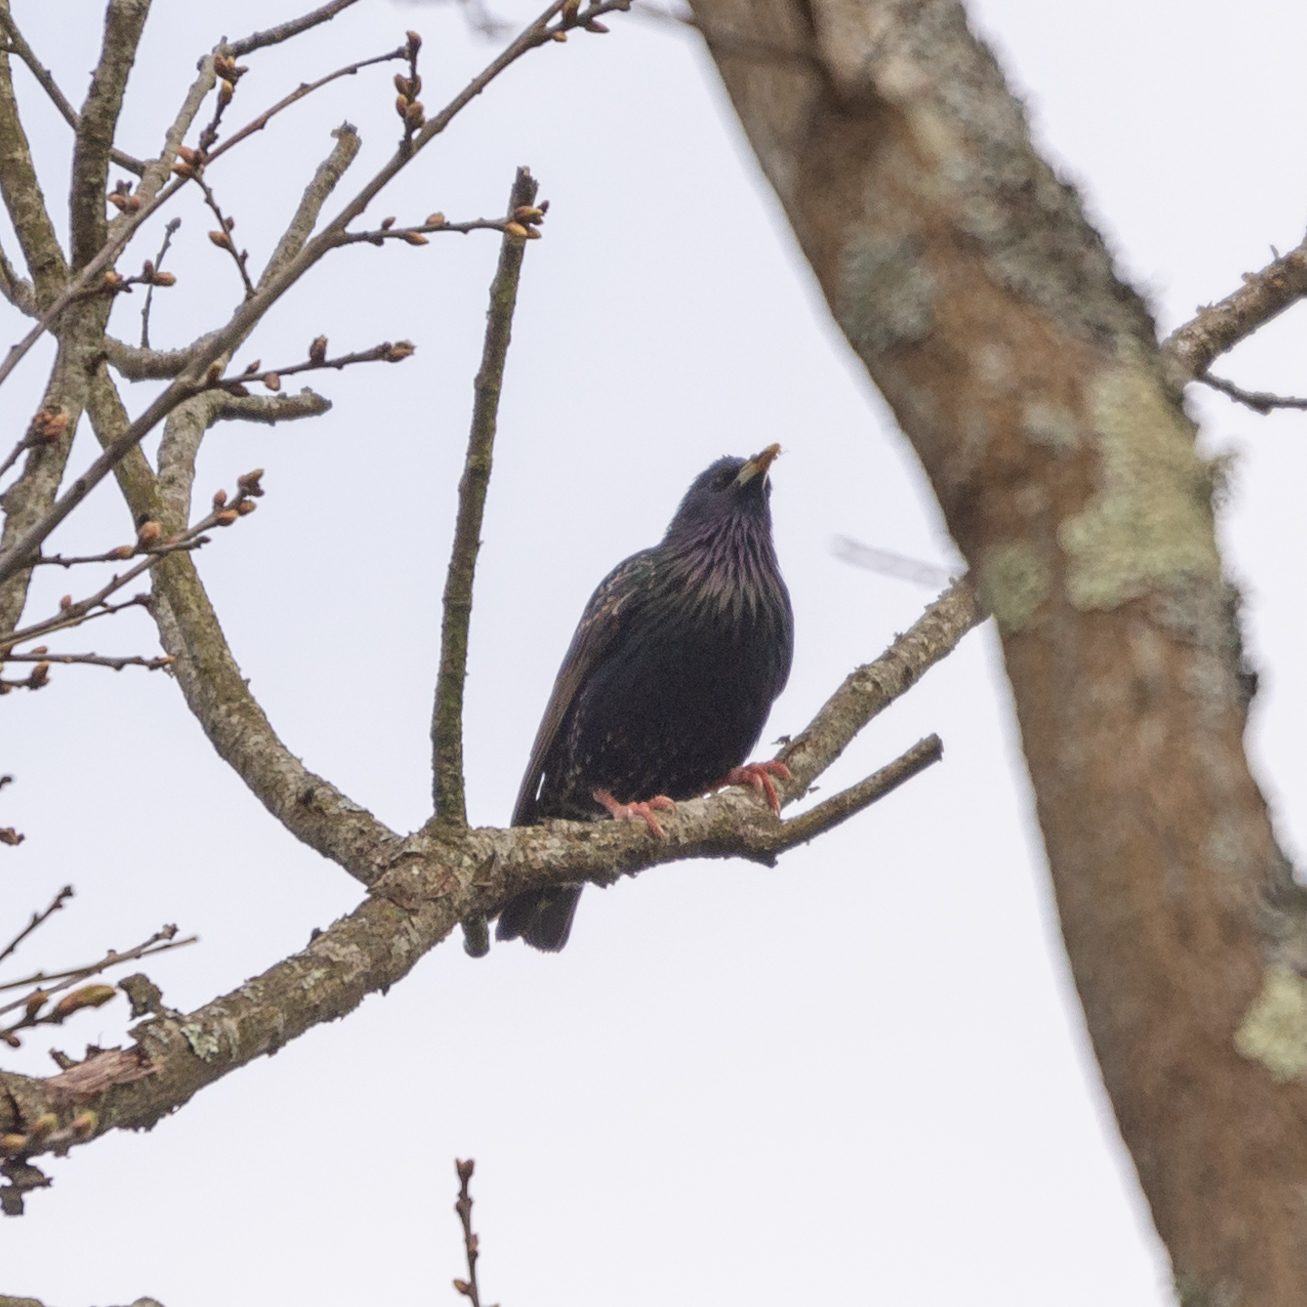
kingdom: Animalia
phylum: Chordata
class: Aves
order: Passeriformes
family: Sturnidae
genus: Sturnus
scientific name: Sturnus vulgaris
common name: Common starling
